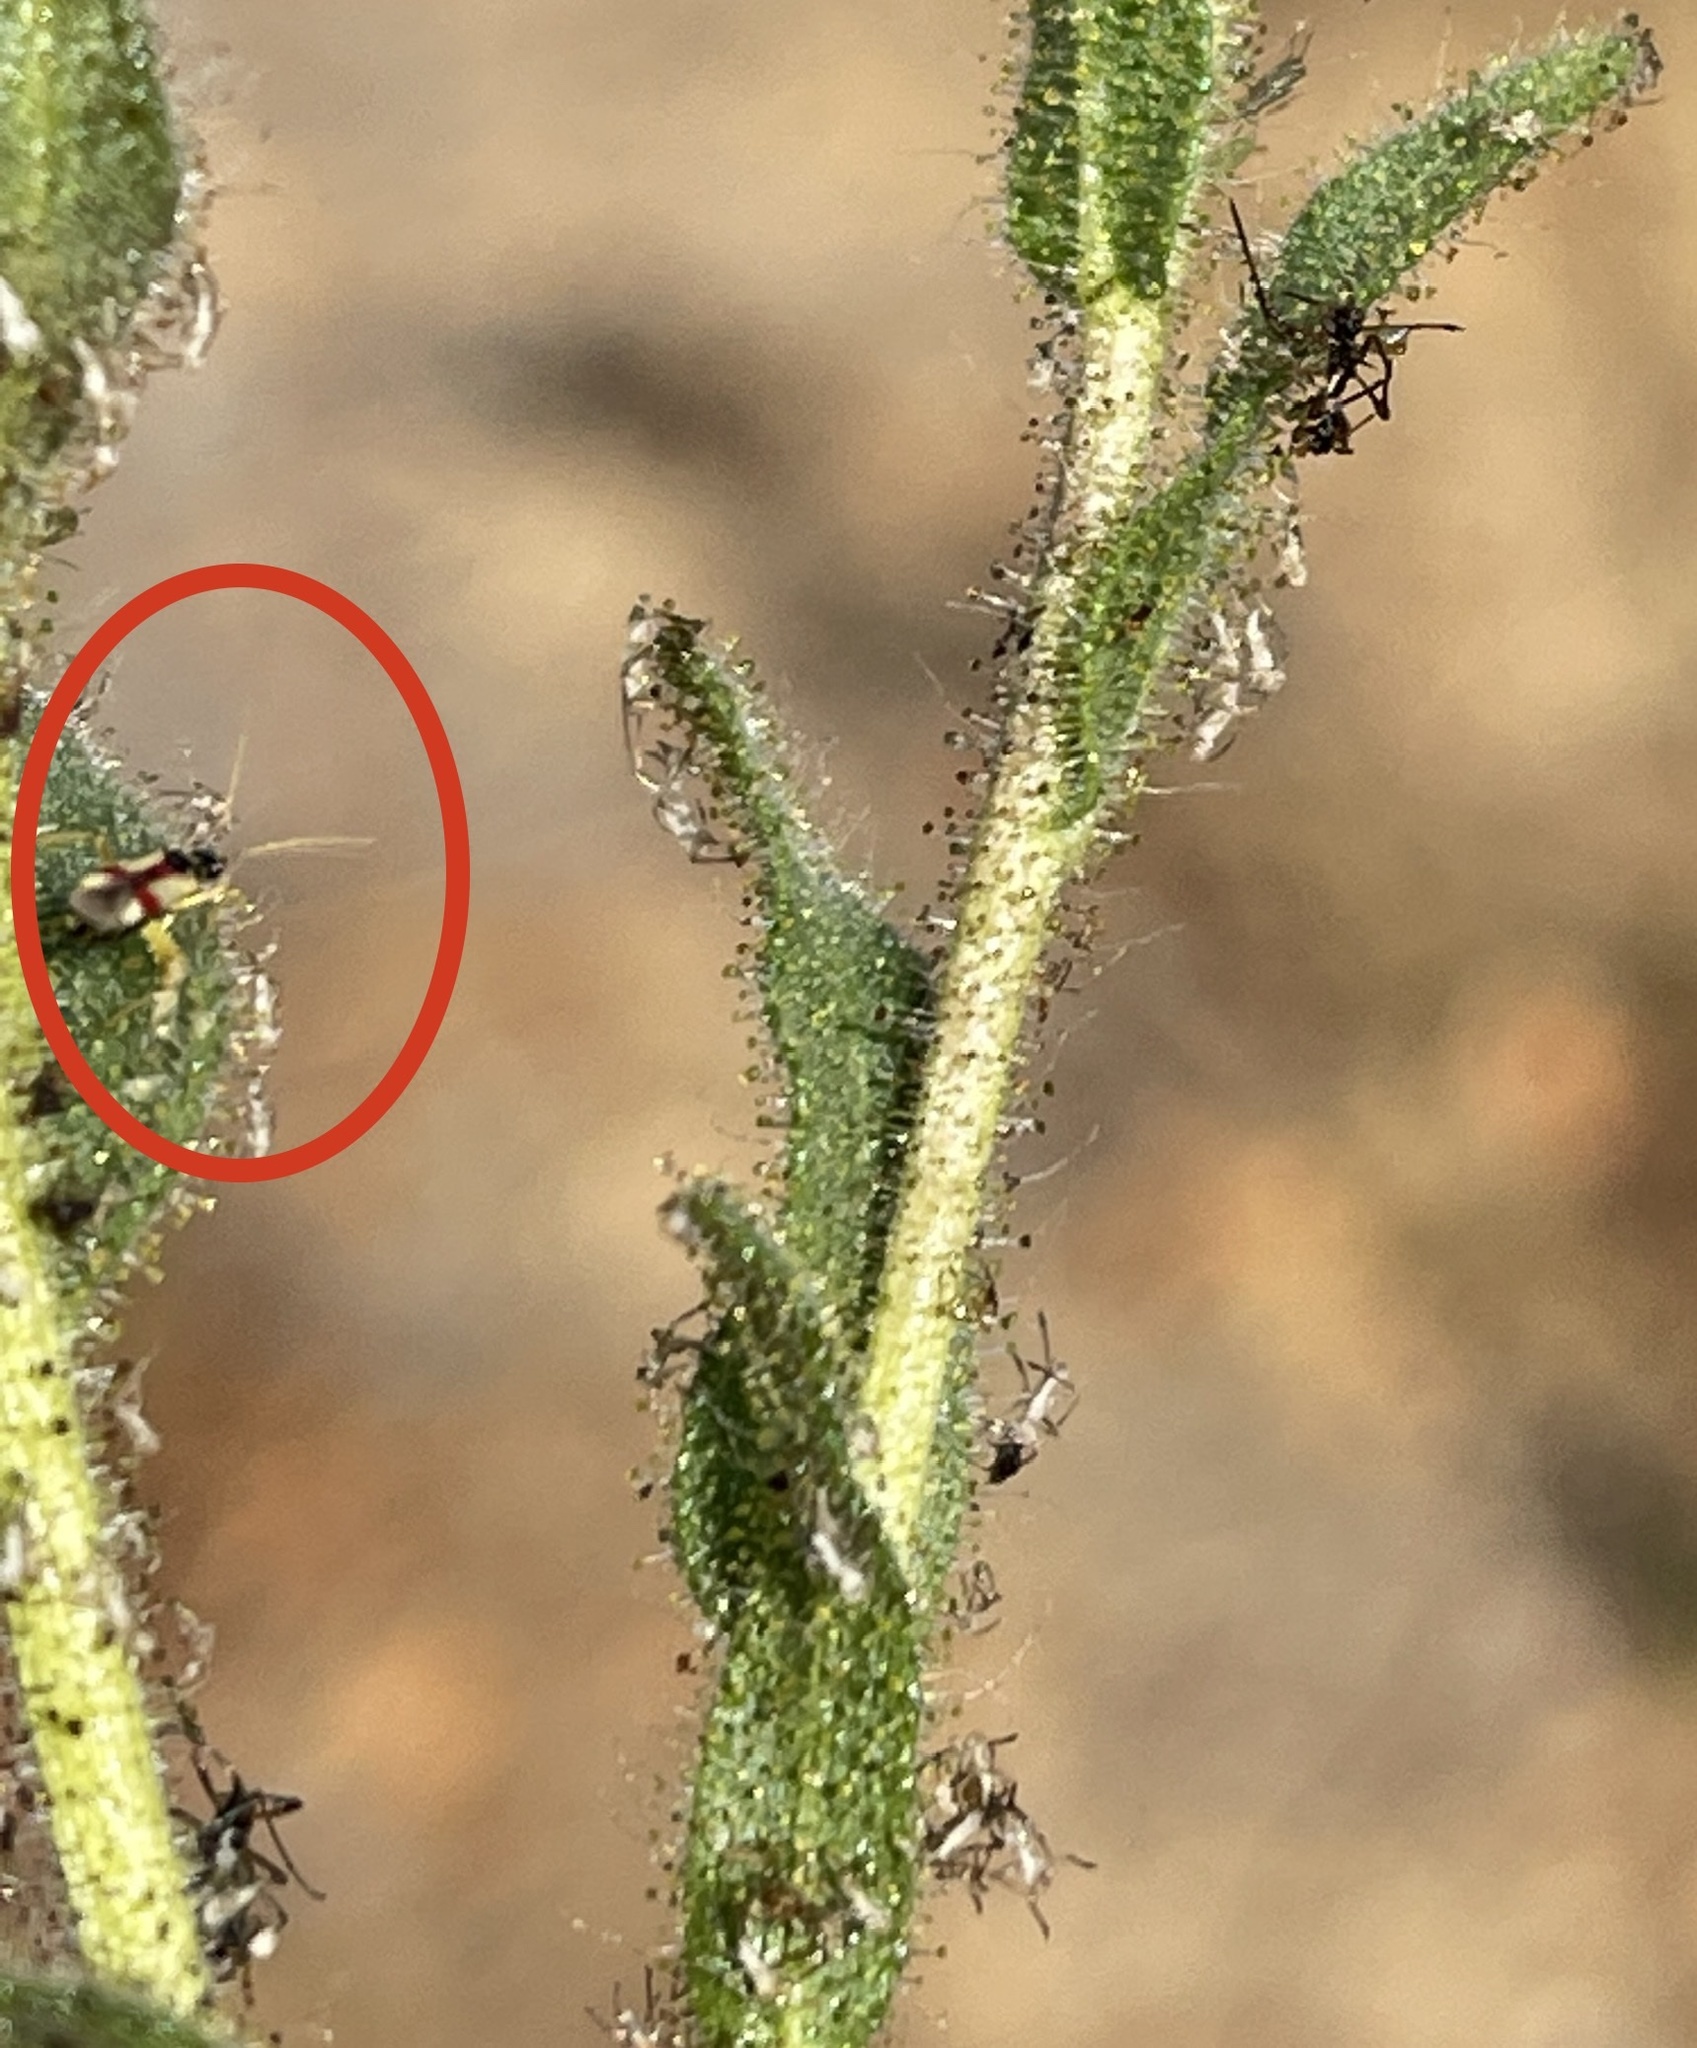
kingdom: Animalia
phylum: Arthropoda
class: Insecta
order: Hemiptera
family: Miridae
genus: Tupiocoris
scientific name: Tupiocoris californicus
